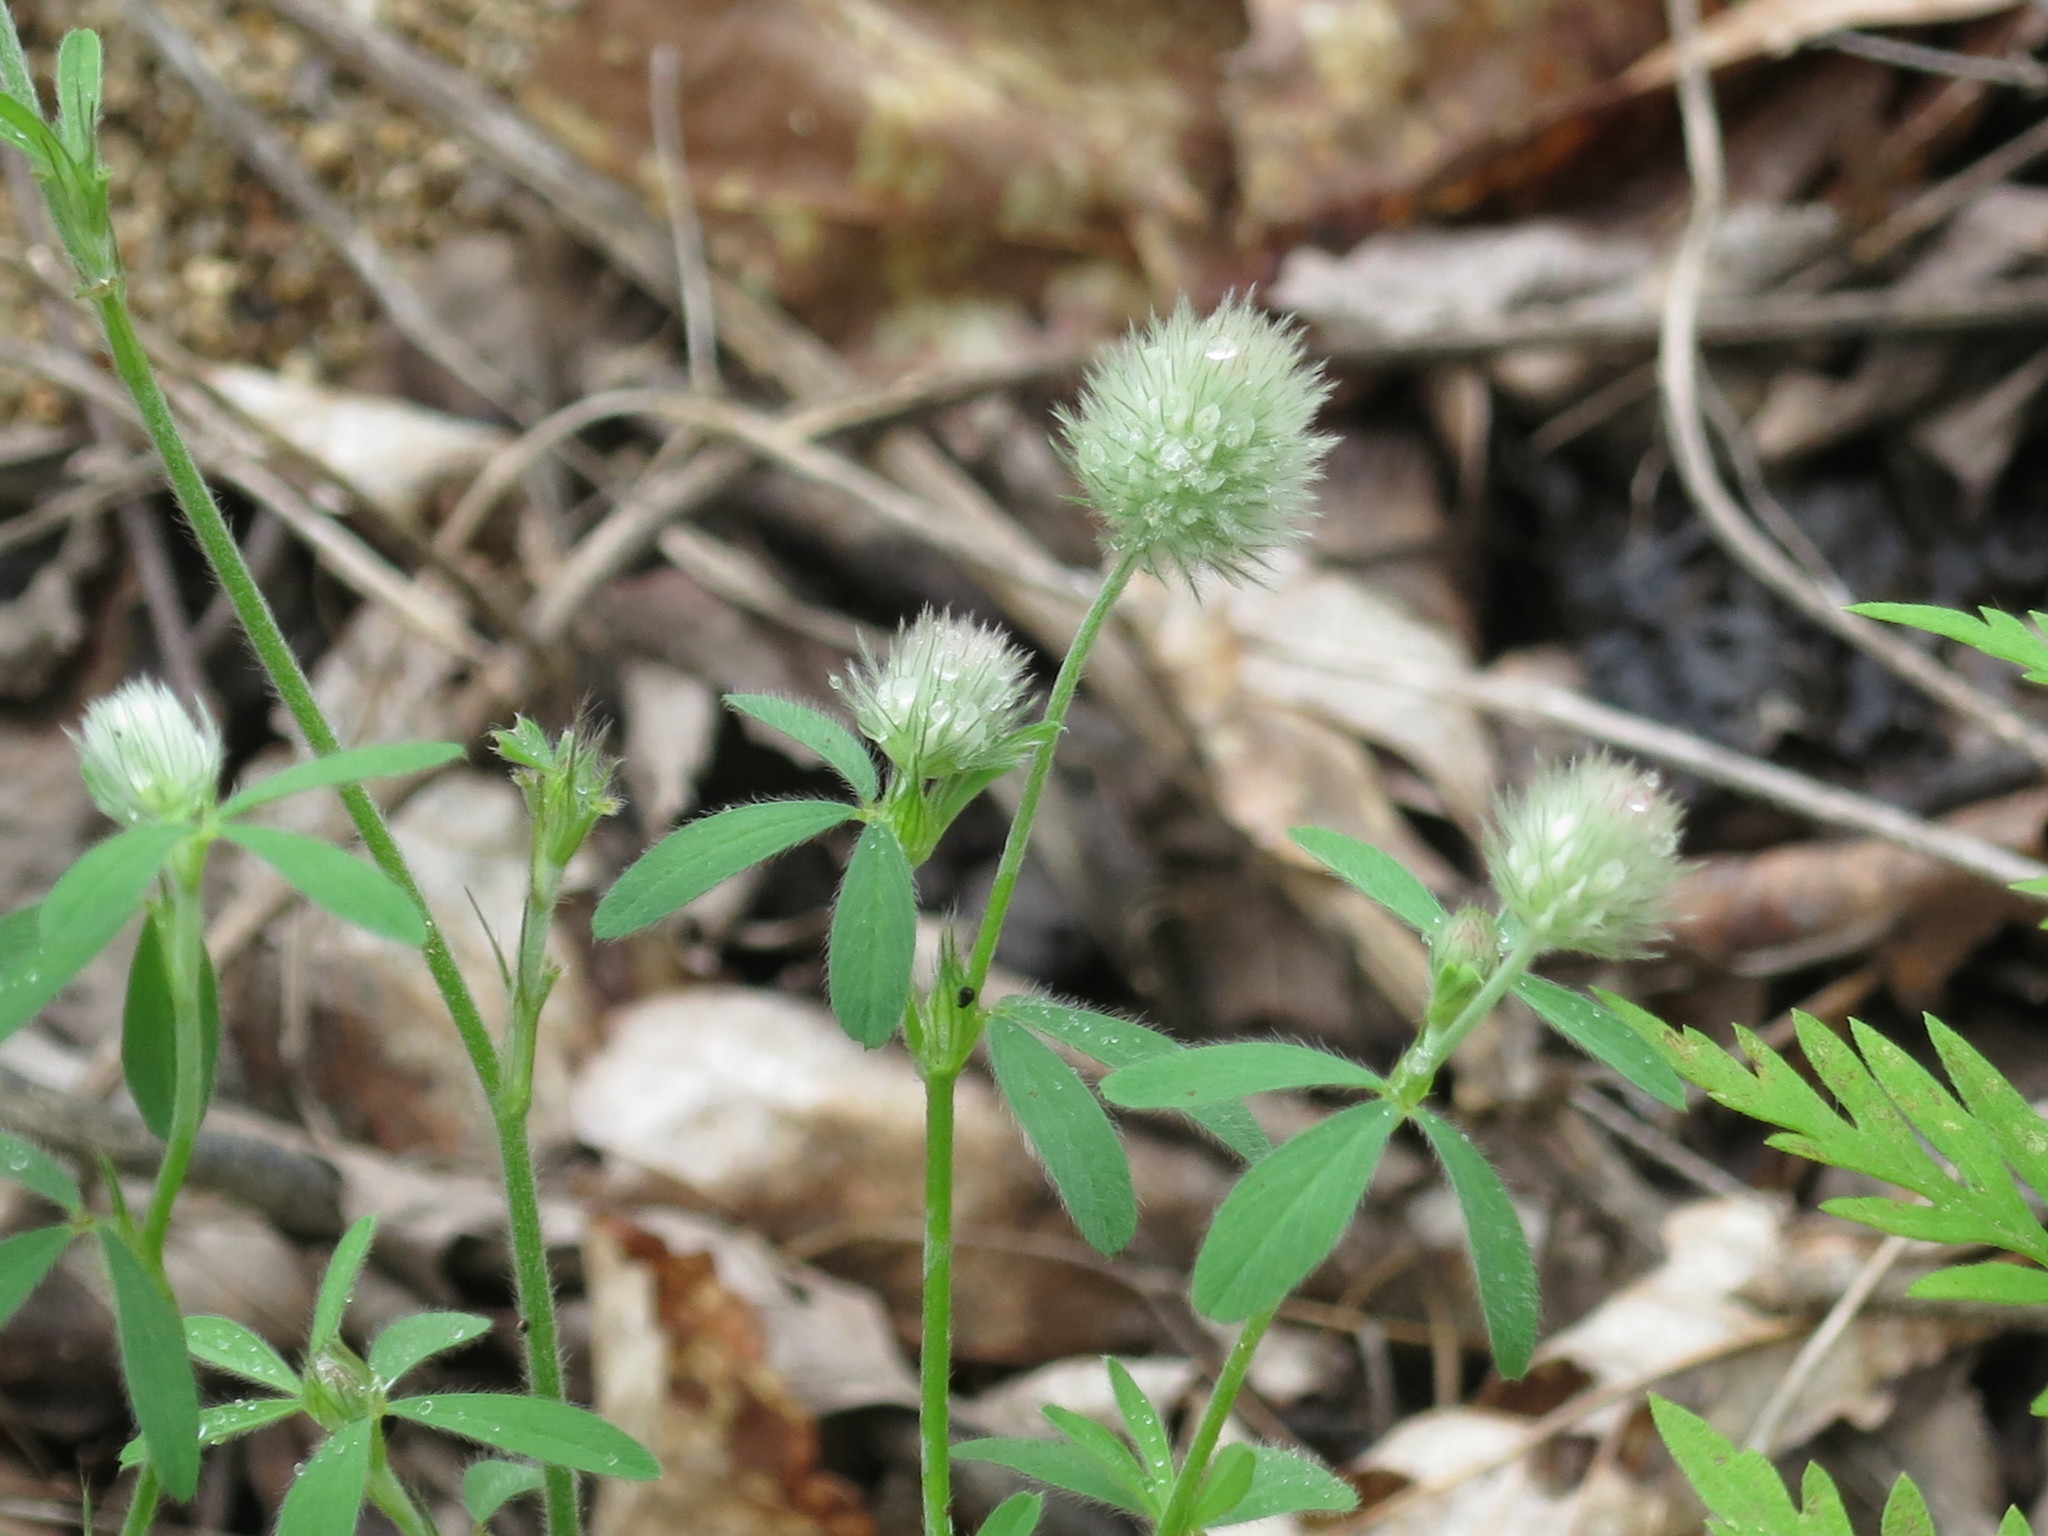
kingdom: Plantae
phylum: Tracheophyta
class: Magnoliopsida
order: Fabales
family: Fabaceae
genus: Trifolium
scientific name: Trifolium arvense
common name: Hare's-foot clover
